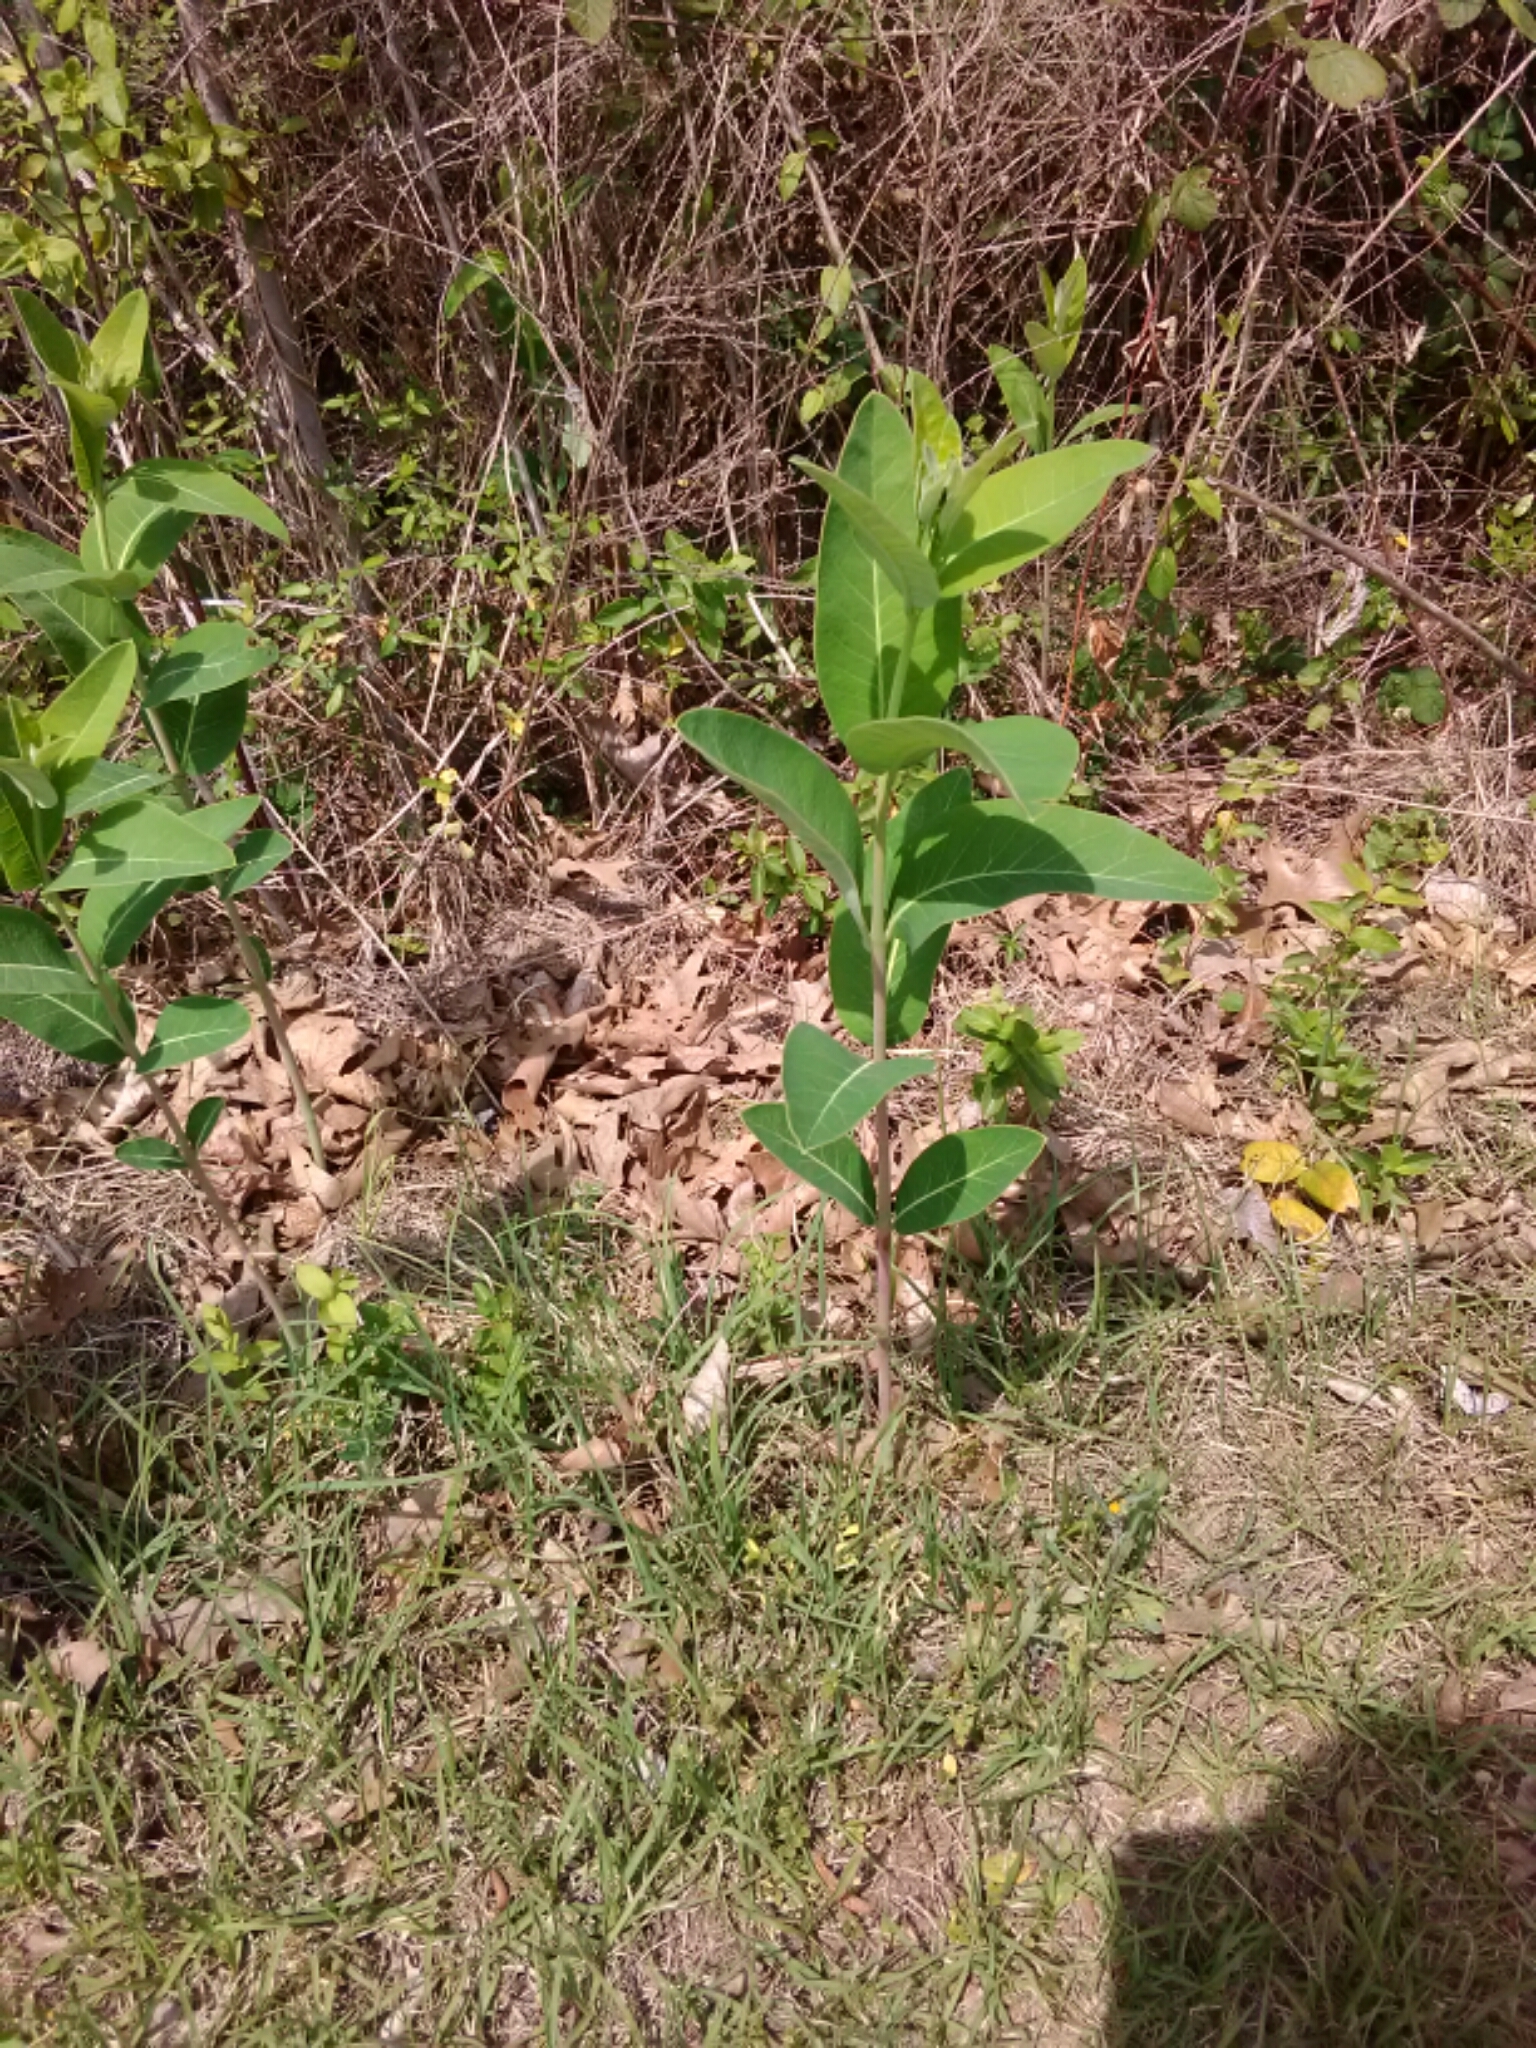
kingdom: Plantae
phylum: Tracheophyta
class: Magnoliopsida
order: Gentianales
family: Apocynaceae
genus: Apocynum
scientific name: Apocynum cannabinum
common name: Hemp dogbane
